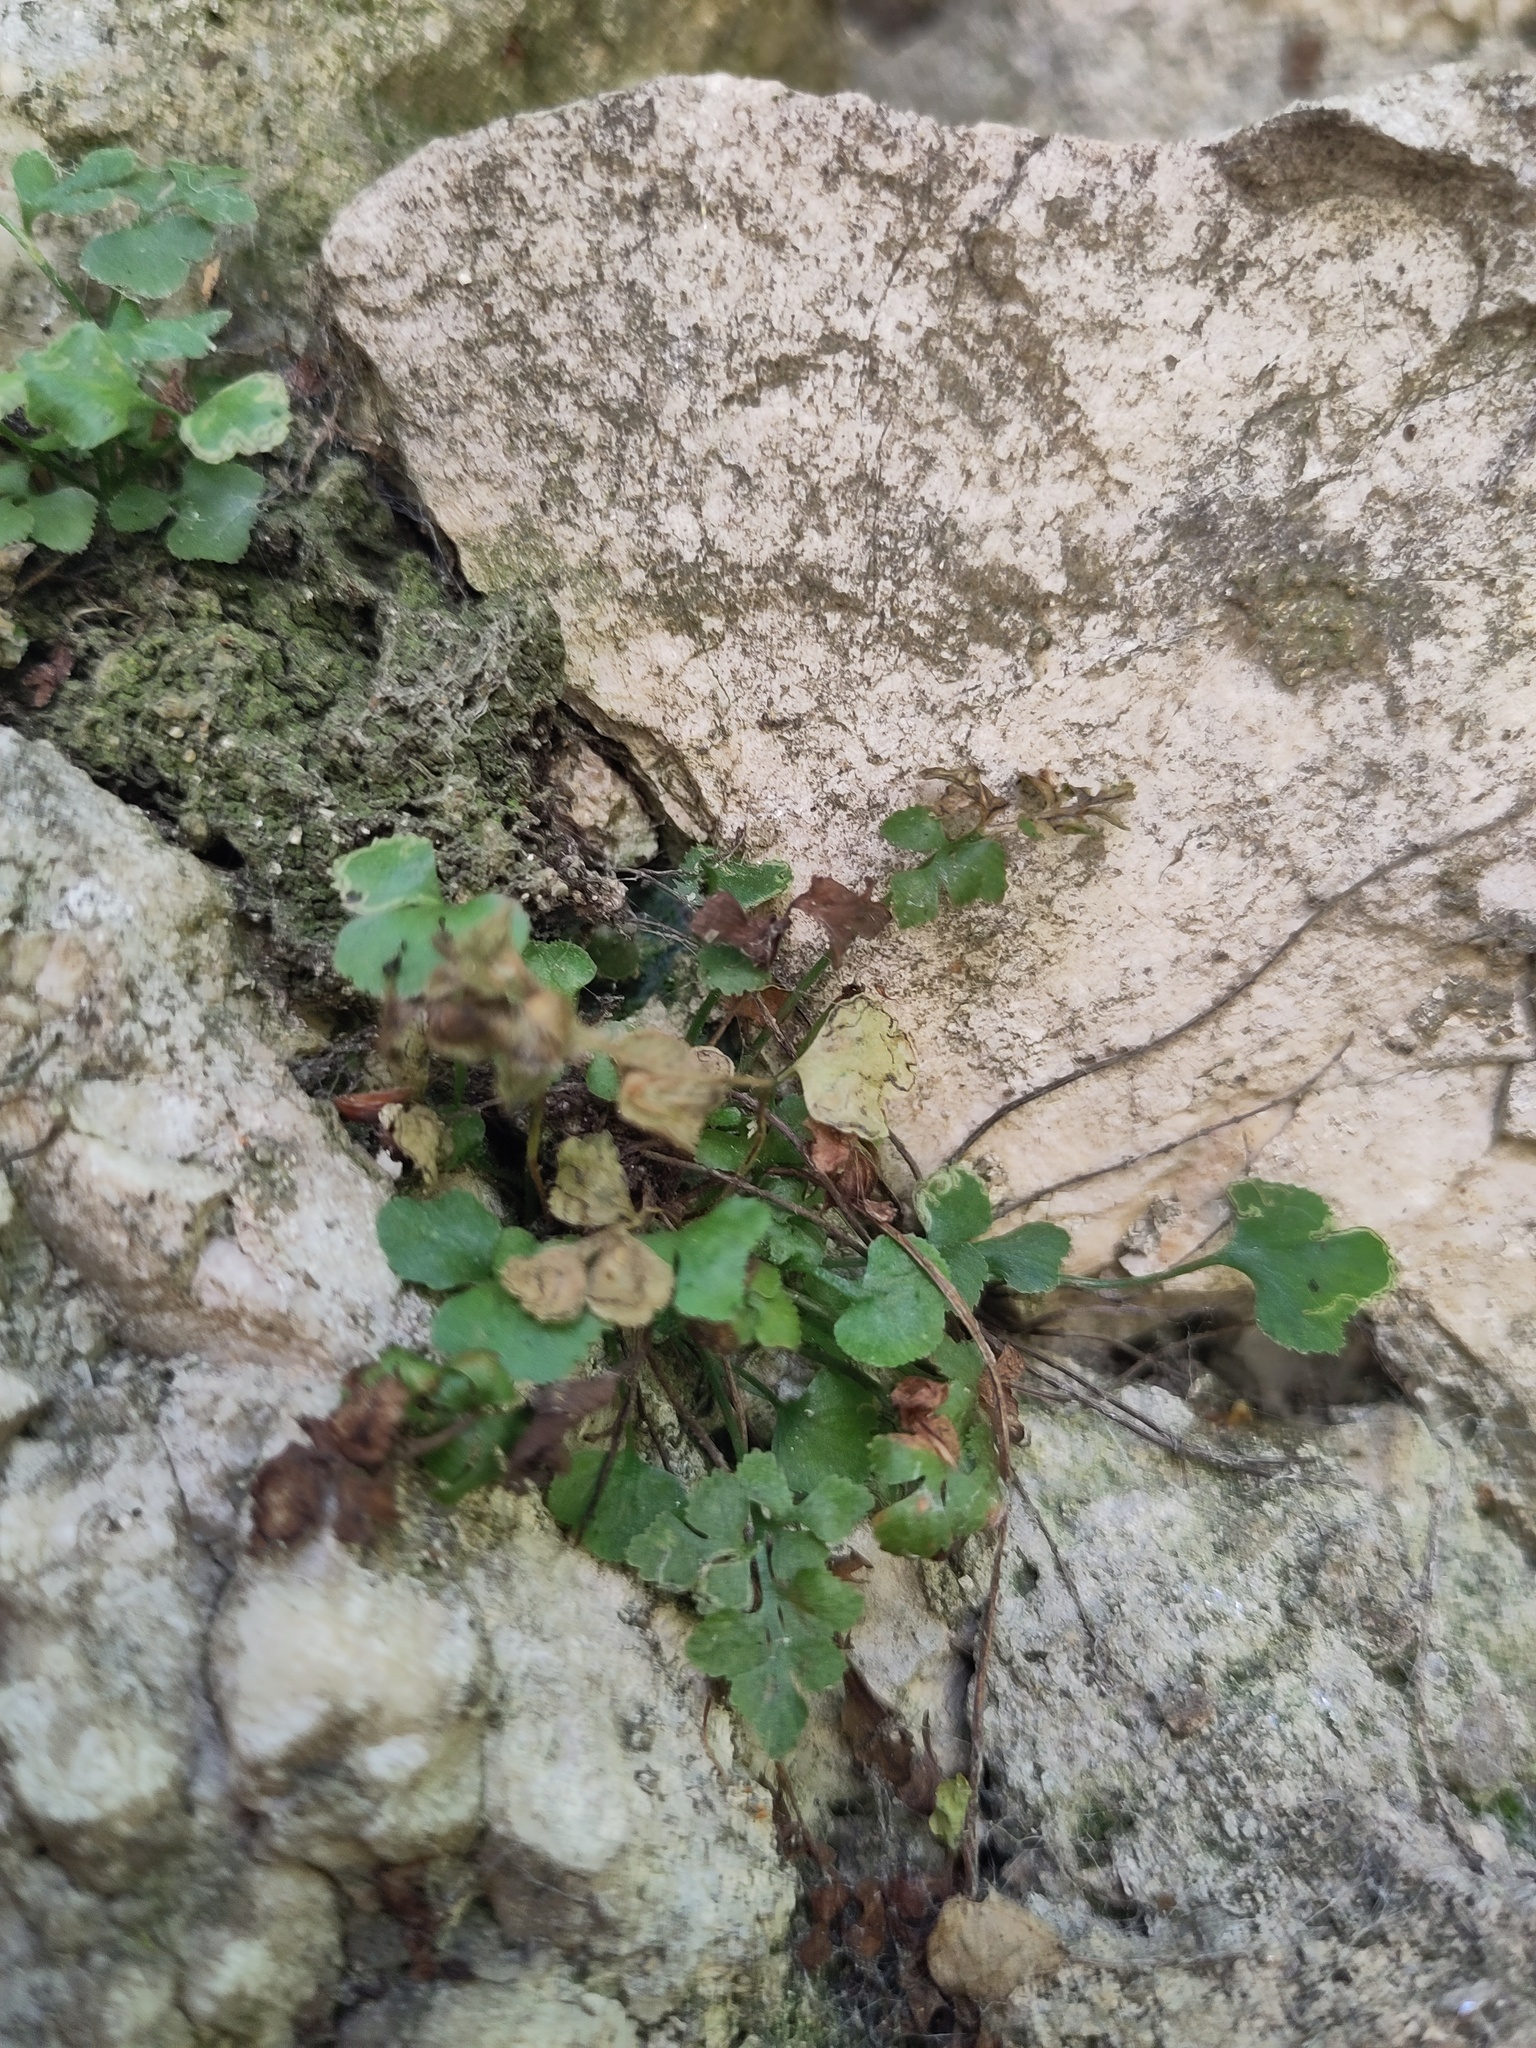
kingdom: Plantae
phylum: Tracheophyta
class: Polypodiopsida
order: Polypodiales
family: Aspleniaceae
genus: Asplenium
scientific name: Asplenium ruta-muraria
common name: Wall-rue
